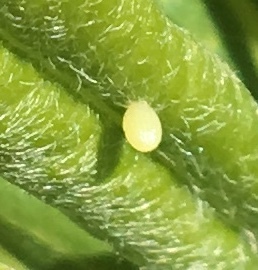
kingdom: Animalia
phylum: Arthropoda
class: Insecta
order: Lepidoptera
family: Nymphalidae
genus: Danaus
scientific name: Danaus plexippus
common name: Monarch
